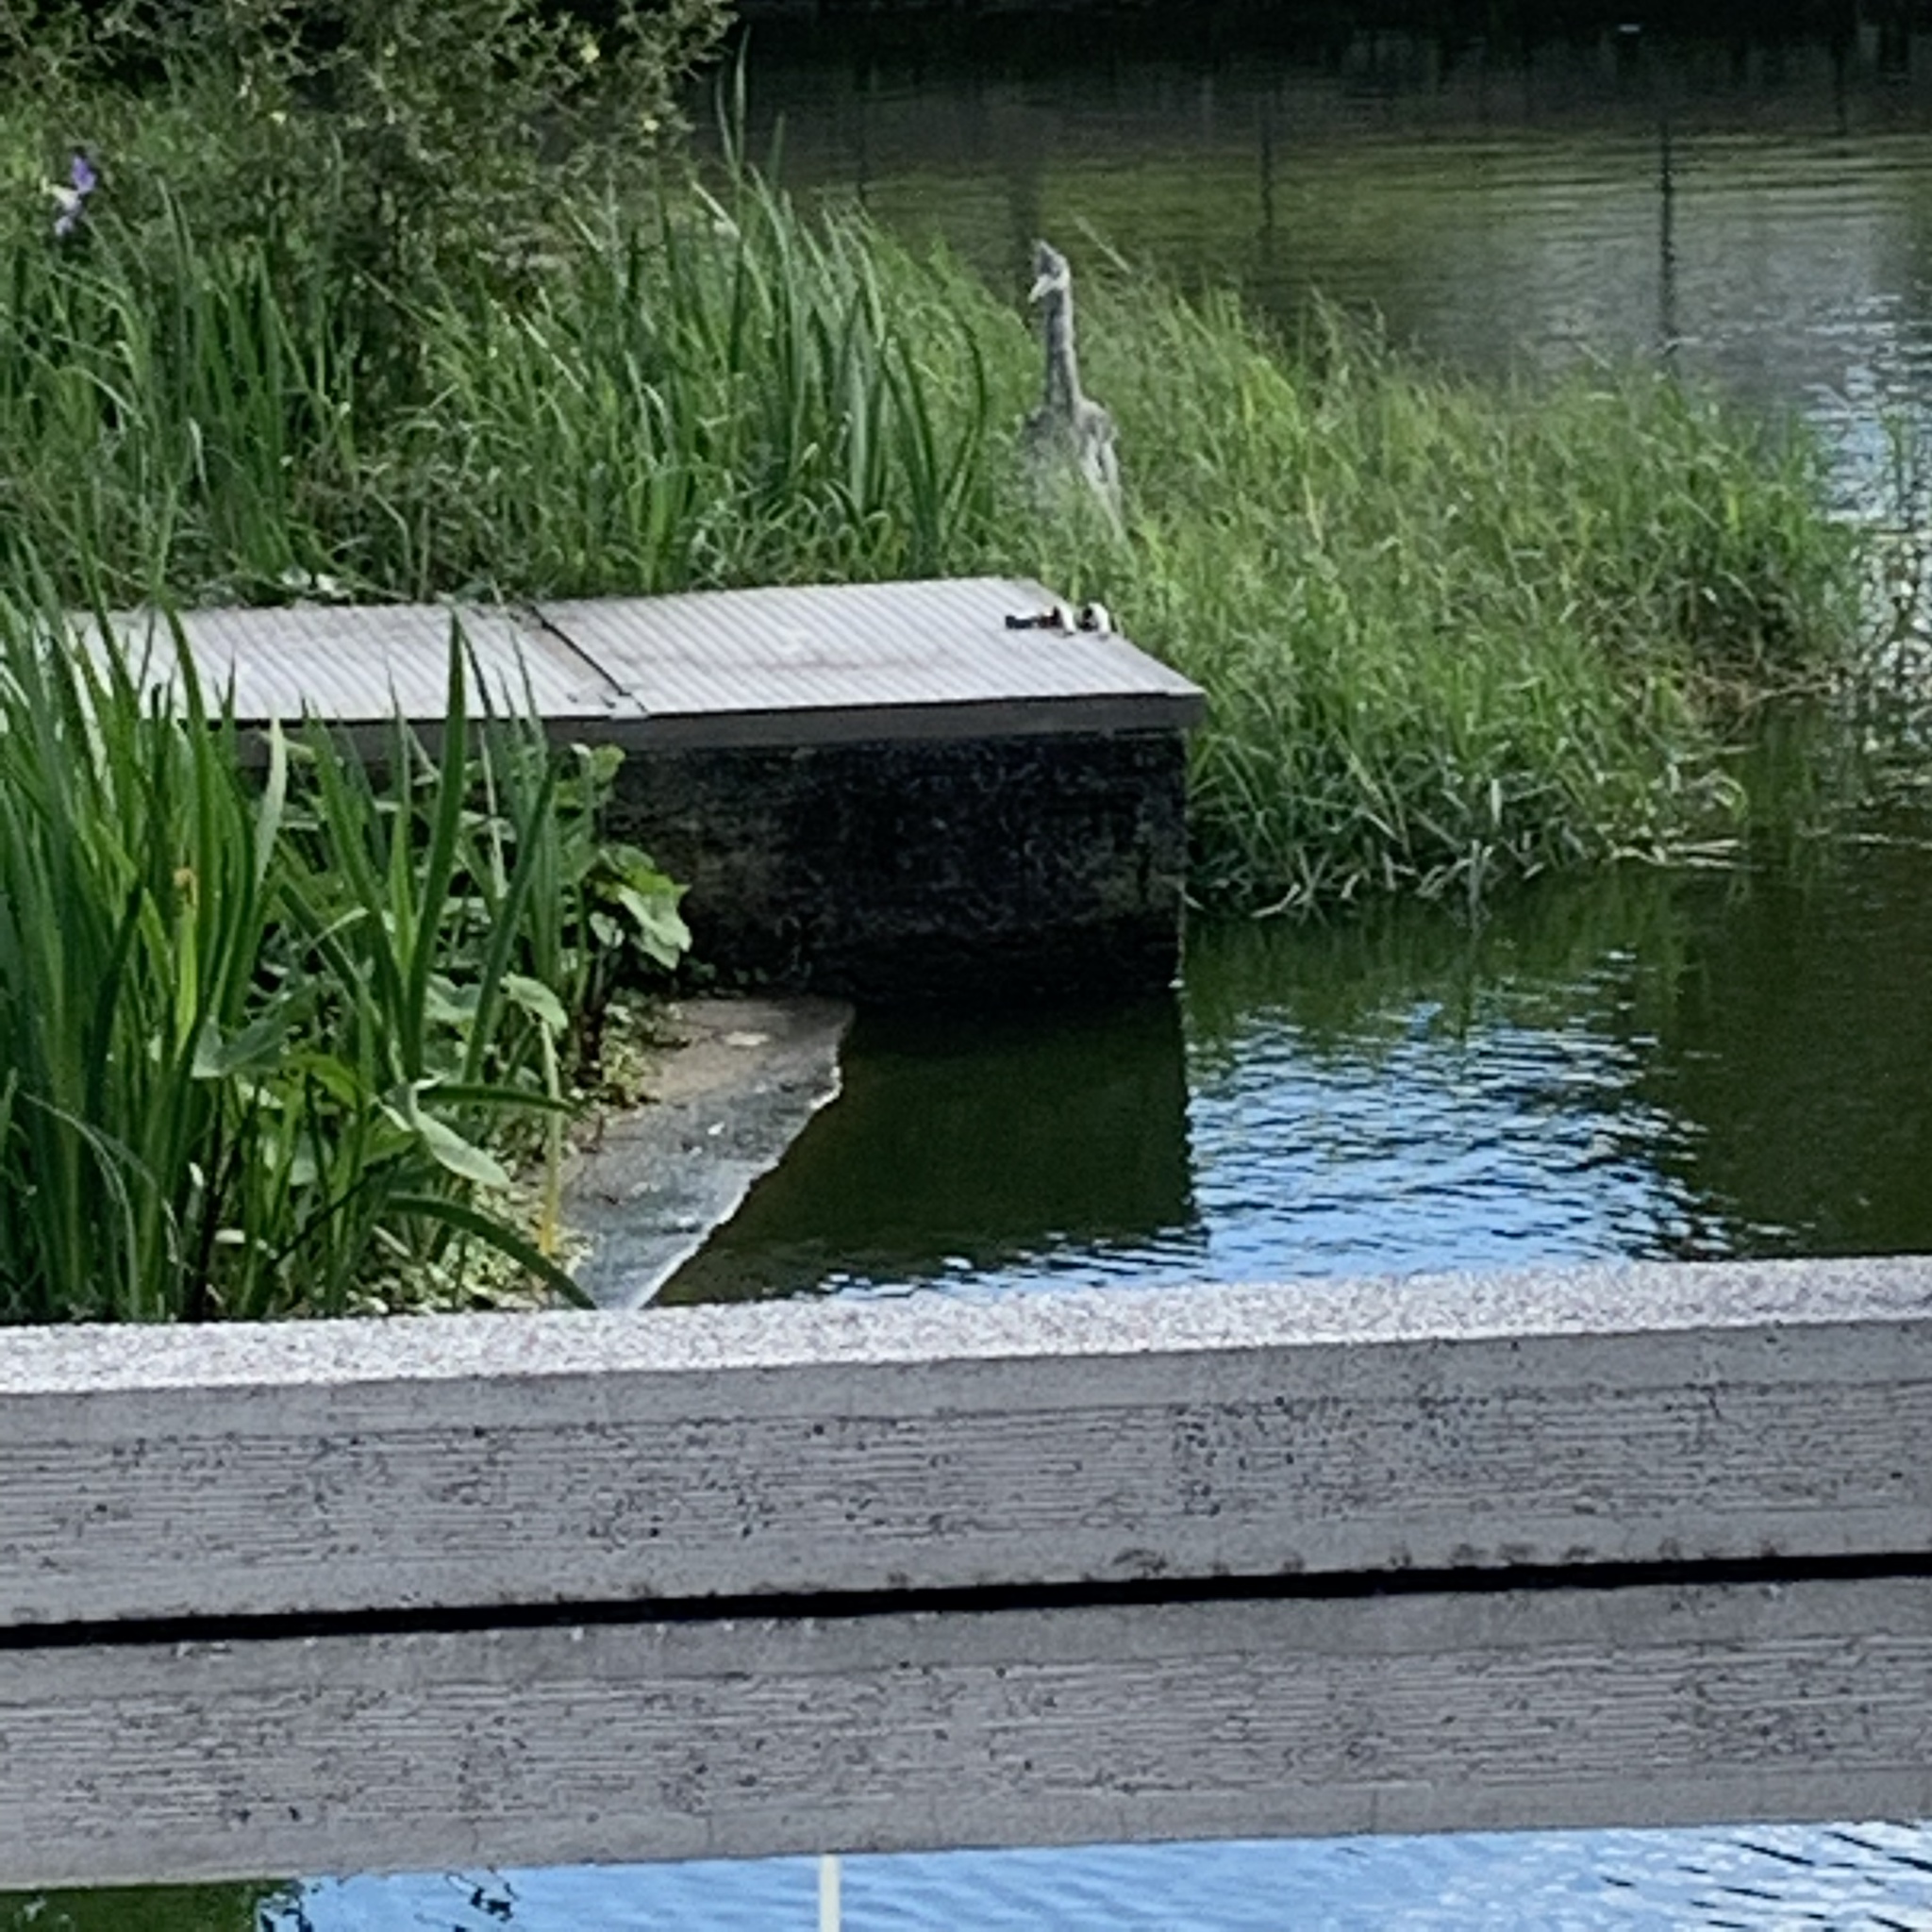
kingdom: Animalia
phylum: Chordata
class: Aves
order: Pelecaniformes
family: Ardeidae
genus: Ardea
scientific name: Ardea cinerea
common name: Grey heron
